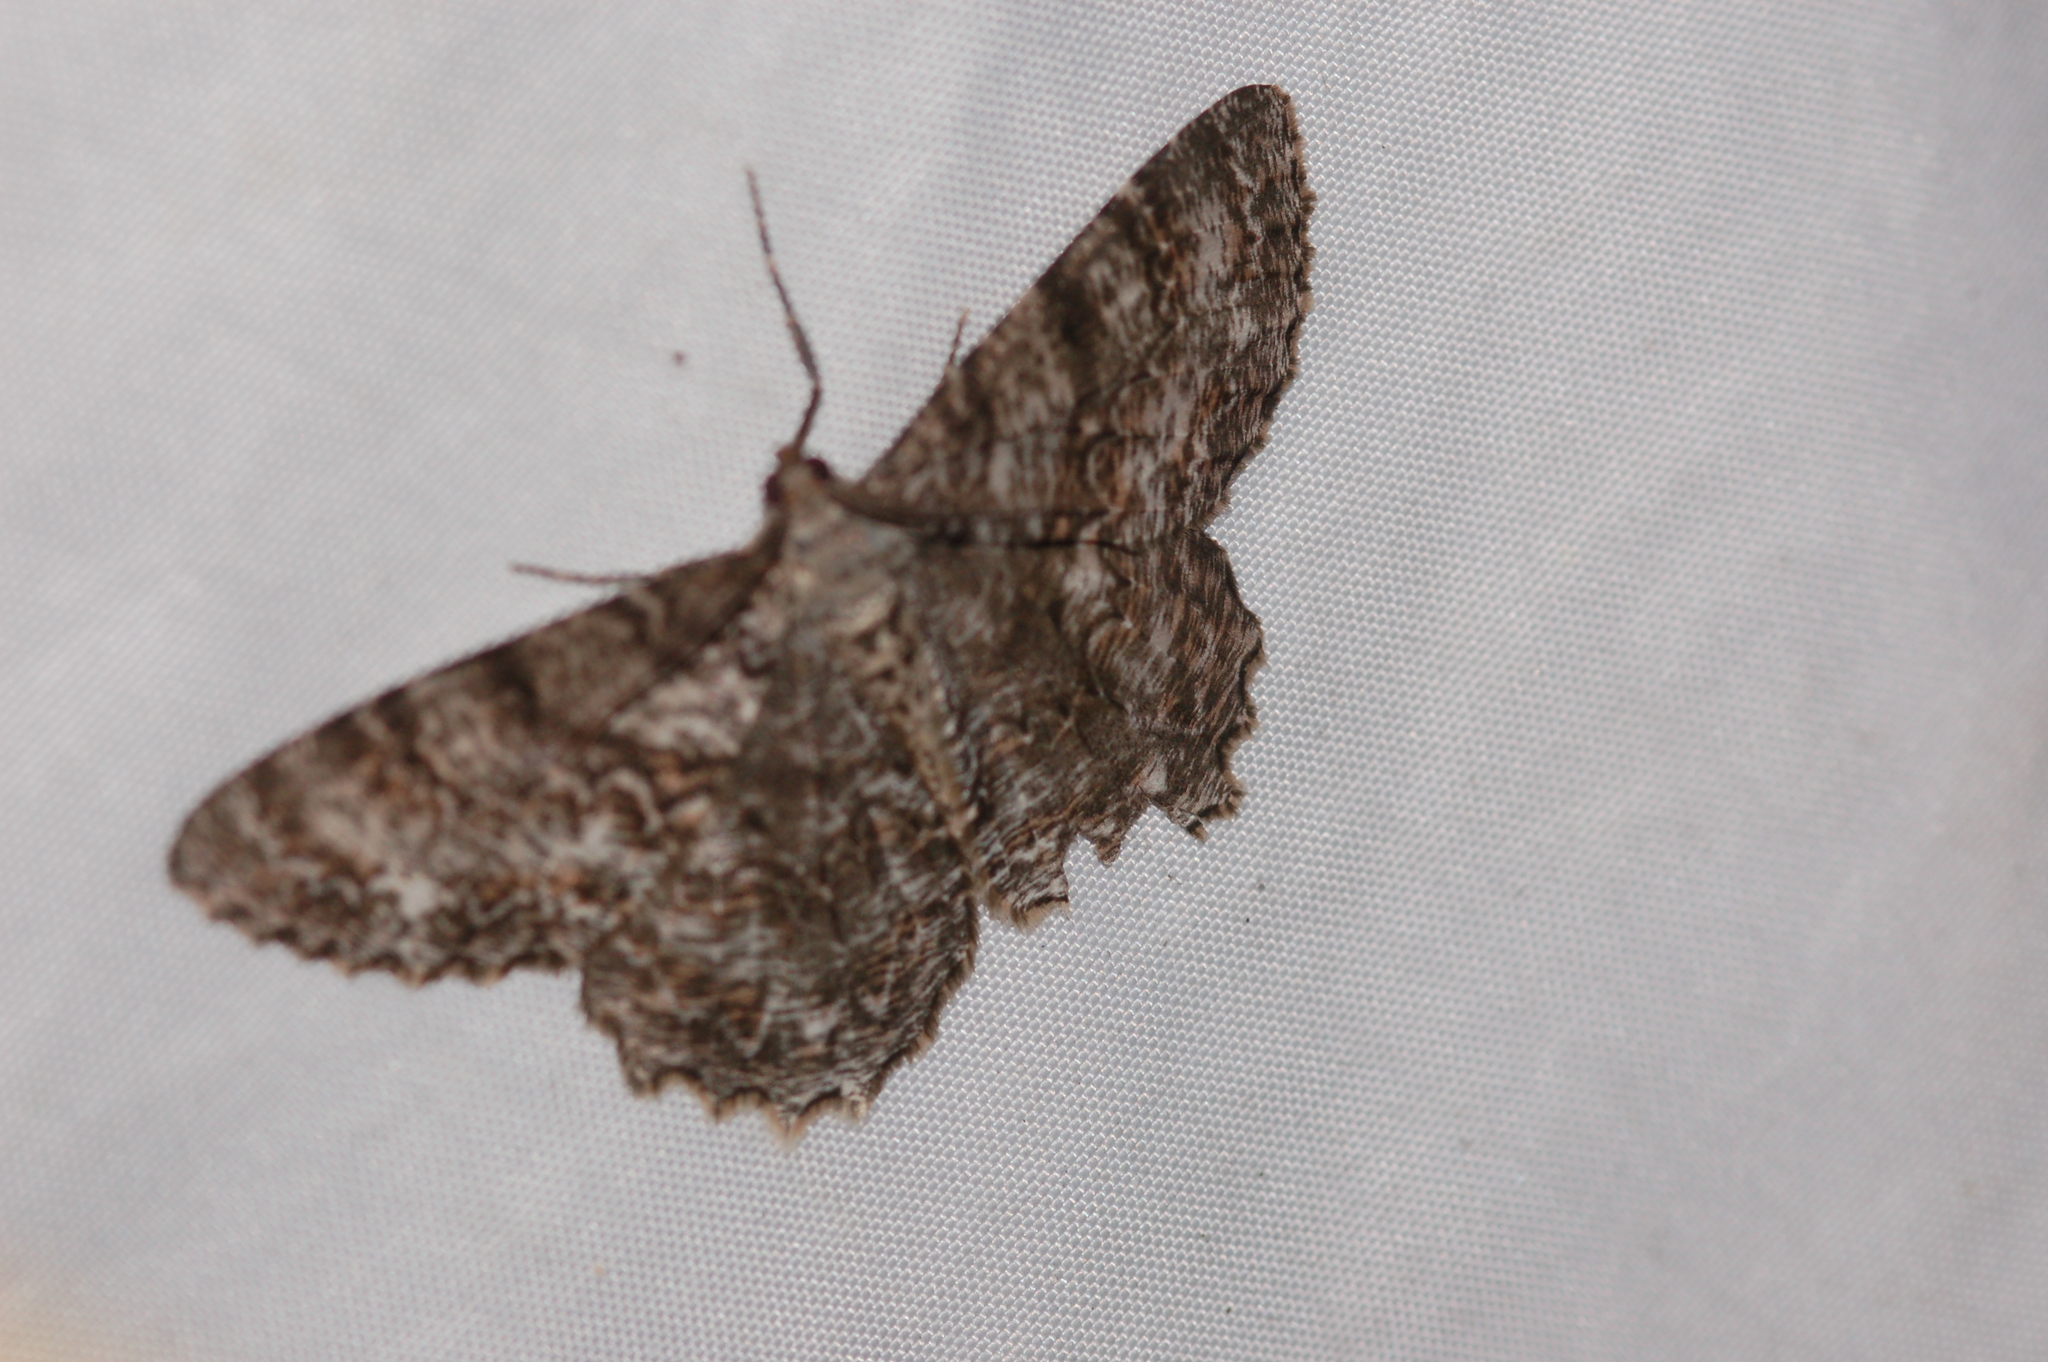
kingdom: Animalia
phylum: Arthropoda
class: Insecta
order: Lepidoptera
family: Geometridae
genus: Epimecis
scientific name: Epimecis hortaria
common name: Tulip-tree beauty
